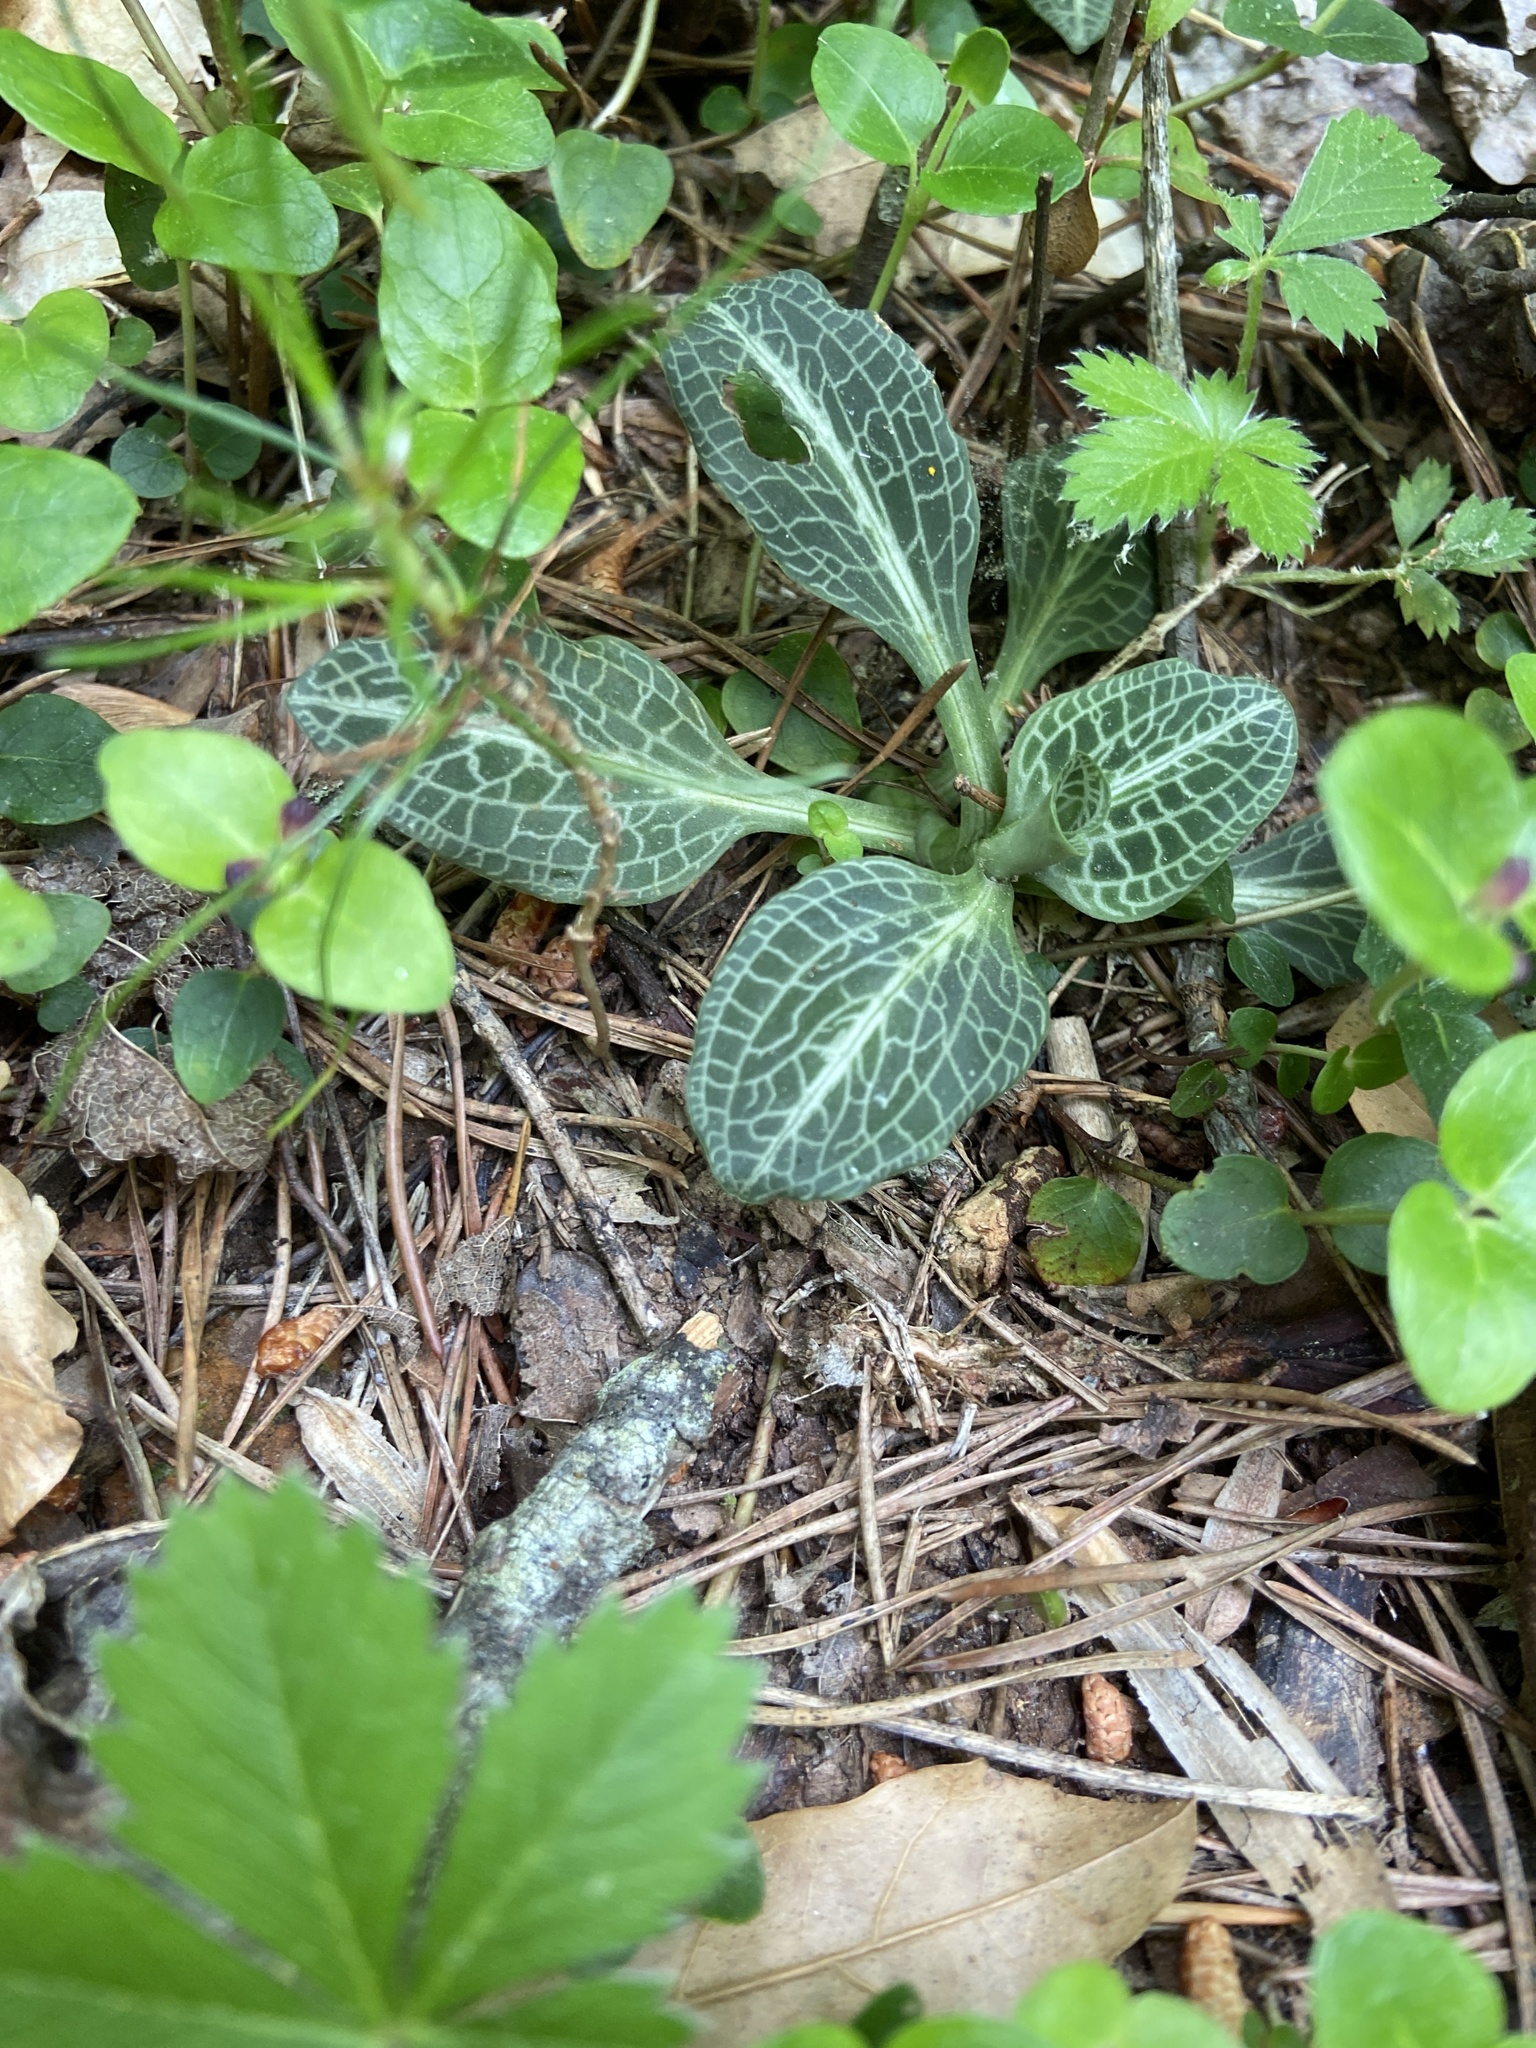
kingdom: Plantae
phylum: Tracheophyta
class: Liliopsida
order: Asparagales
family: Orchidaceae
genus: Goodyera
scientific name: Goodyera pubescens
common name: Downy rattlesnake-plantain
